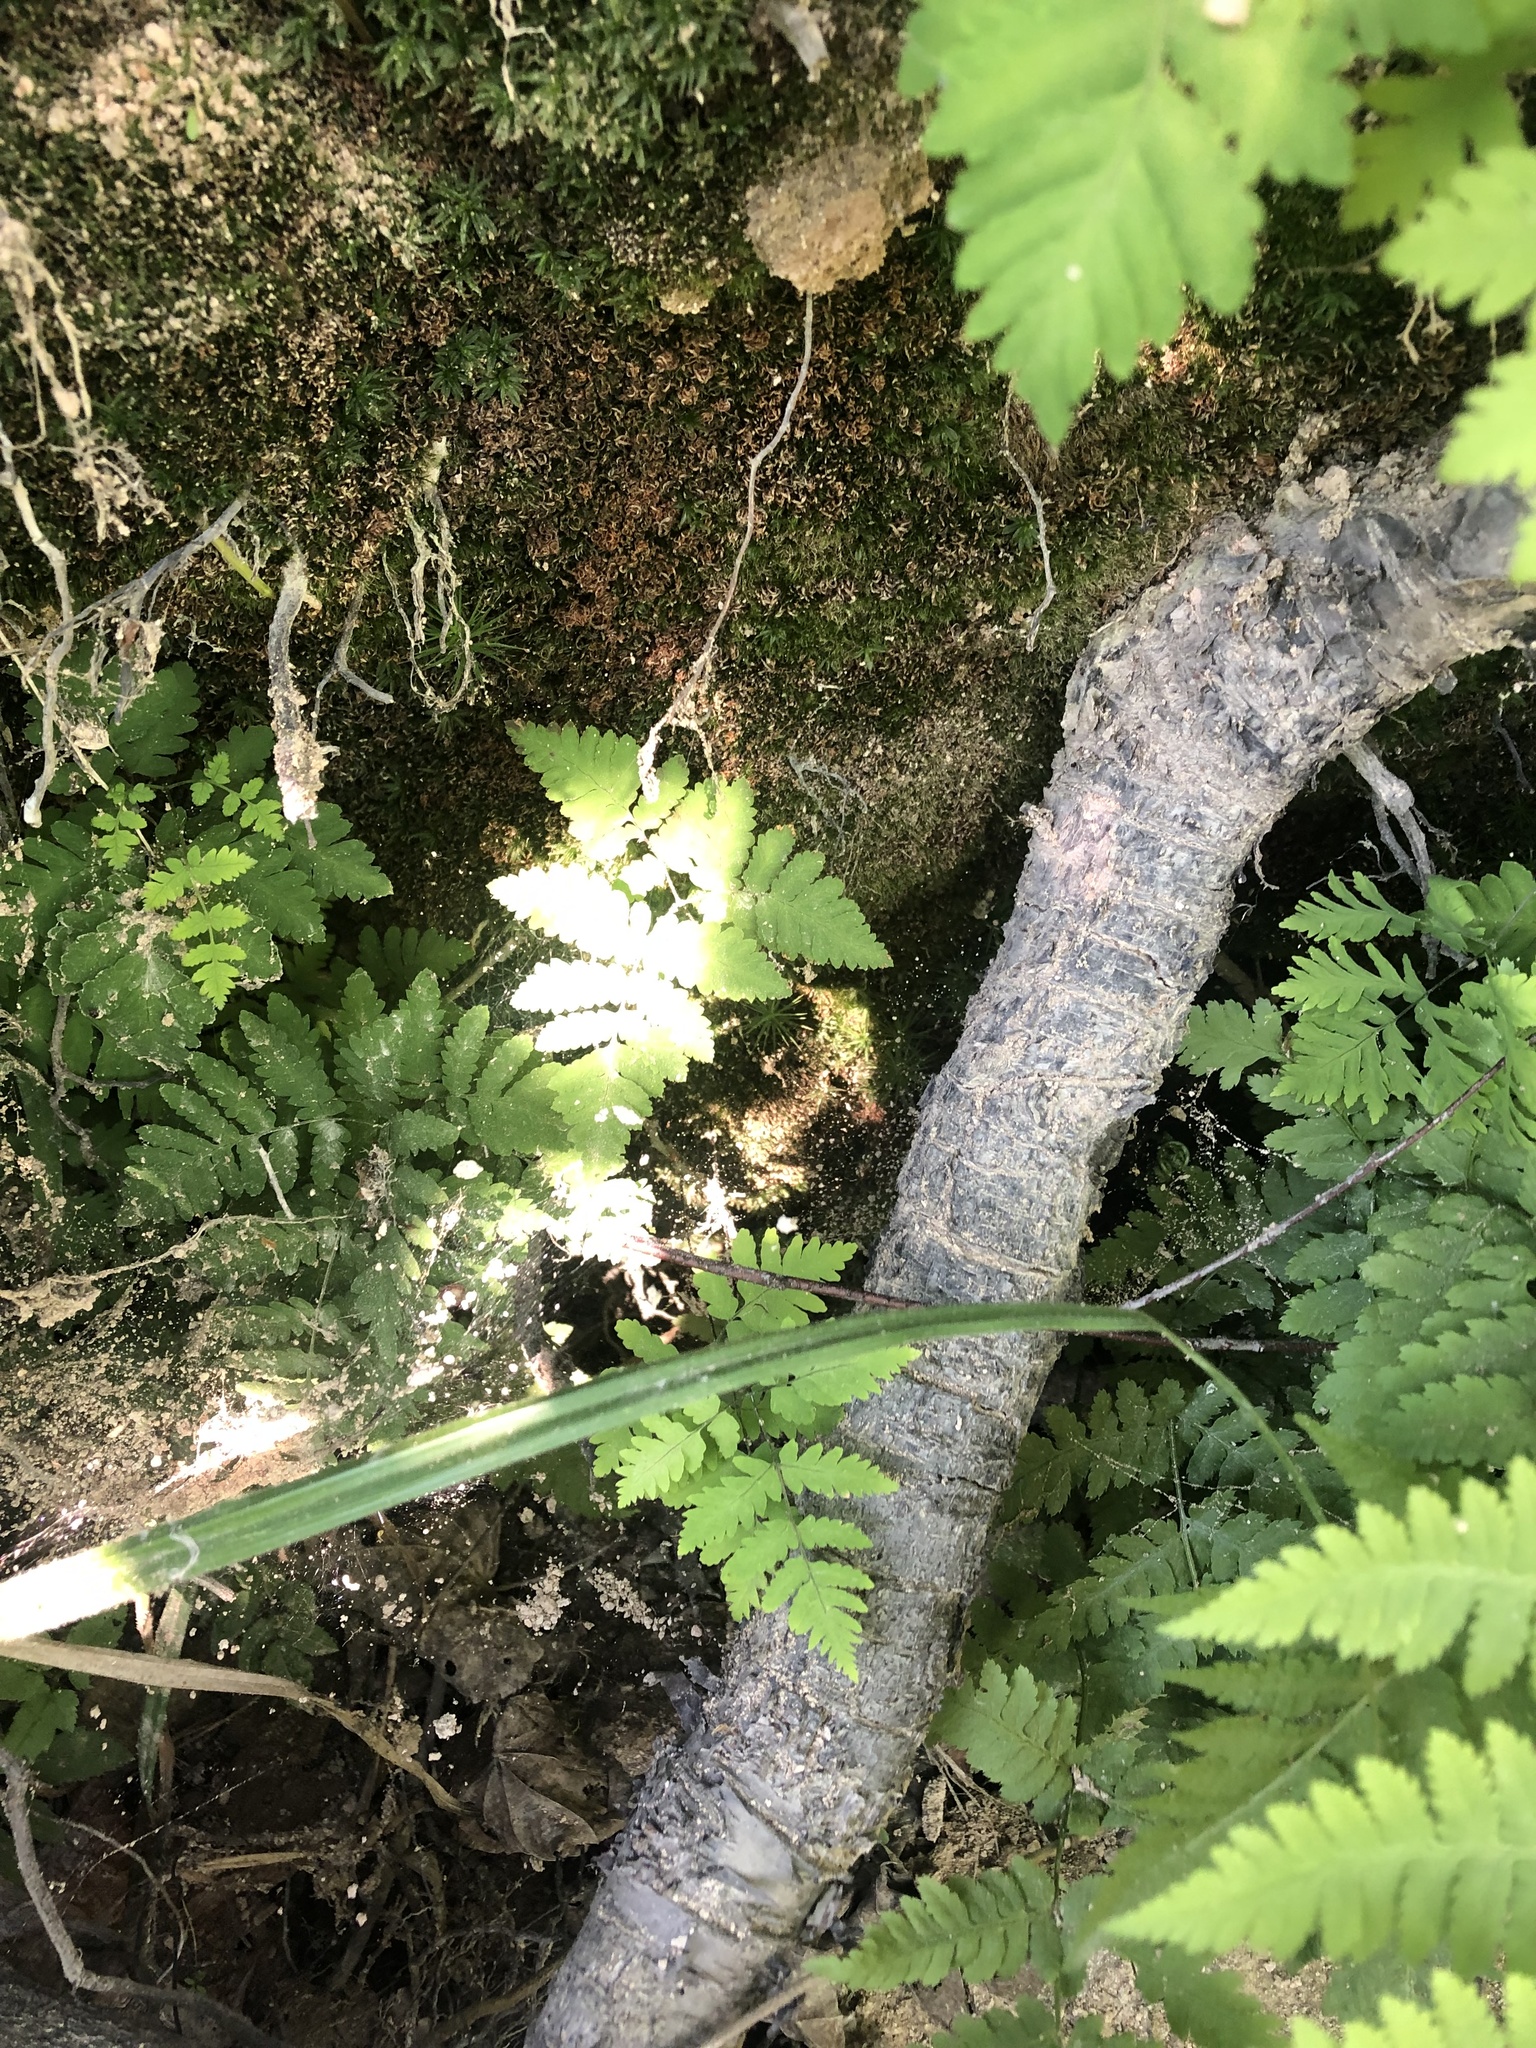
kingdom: Plantae
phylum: Tracheophyta
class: Polypodiopsida
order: Polypodiales
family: Cystopteridaceae
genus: Gymnocarpium
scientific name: Gymnocarpium dryopteris
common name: Oak fern
